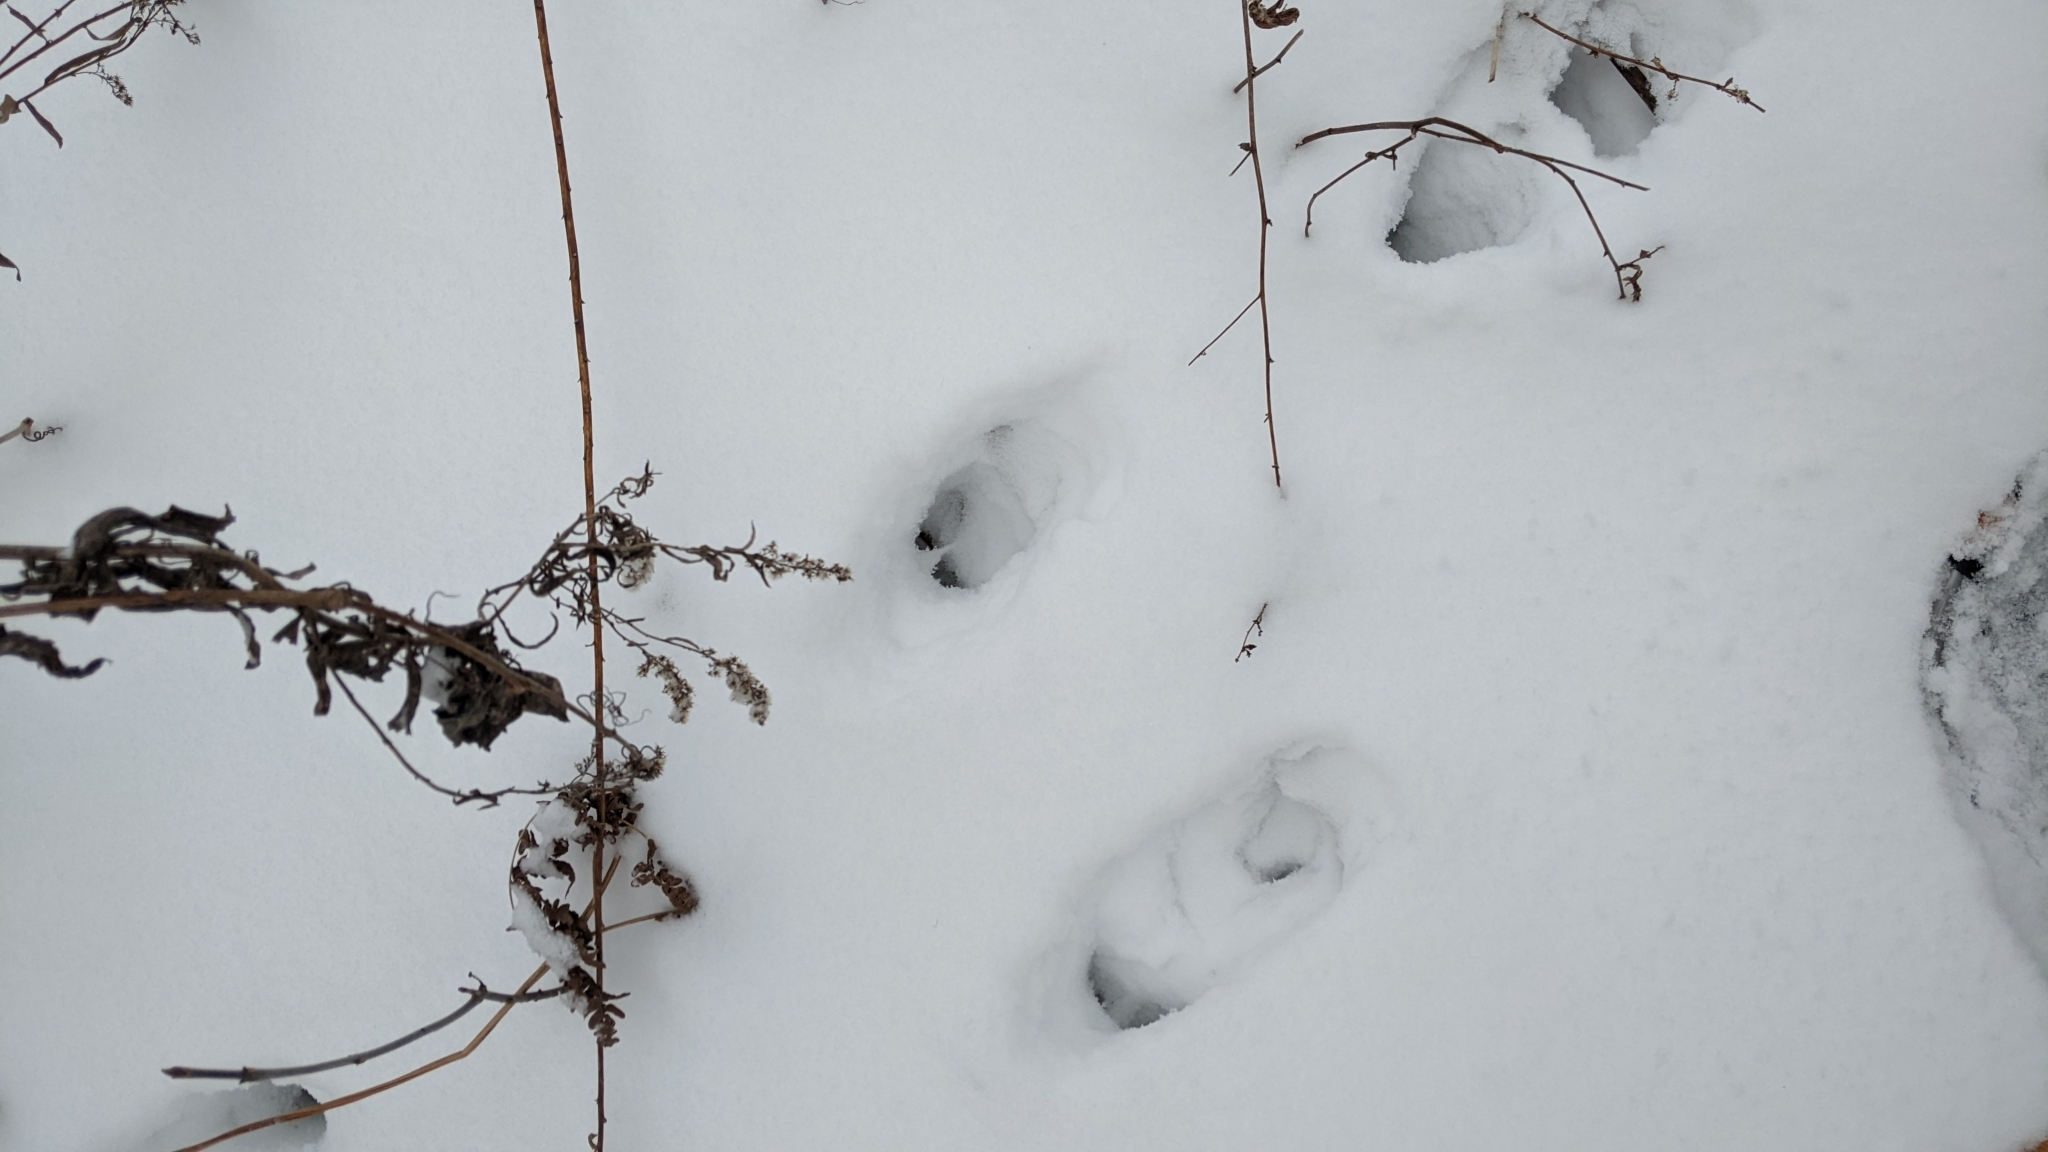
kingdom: Animalia
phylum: Chordata
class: Mammalia
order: Artiodactyla
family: Cervidae
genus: Odocoileus
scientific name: Odocoileus virginianus
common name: White-tailed deer
